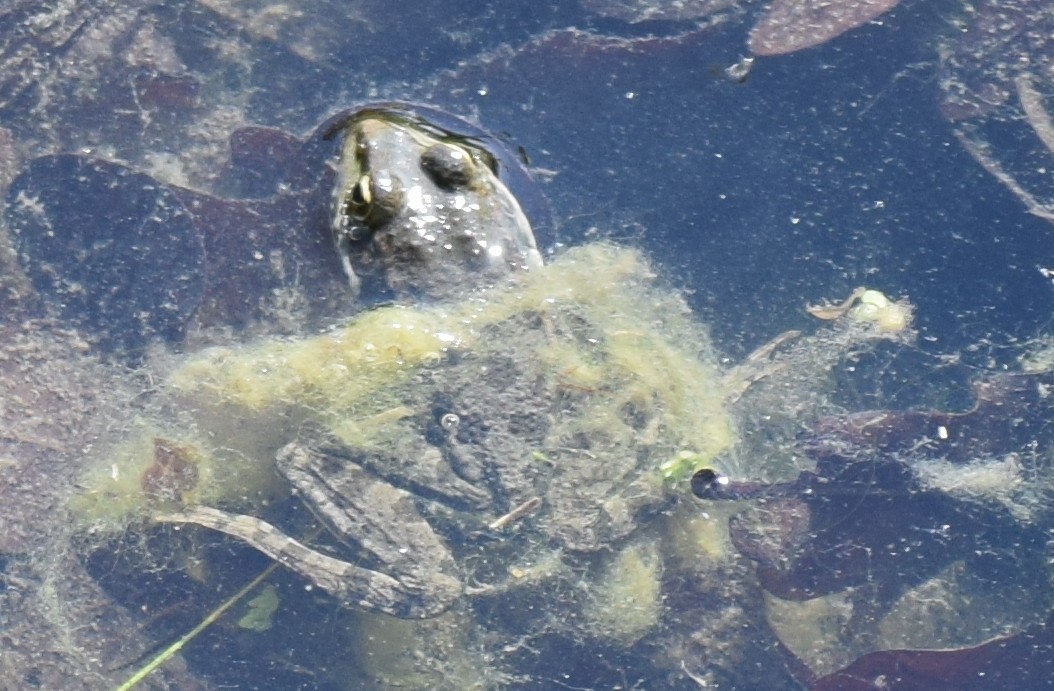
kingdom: Animalia
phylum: Chordata
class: Amphibia
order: Anura
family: Ranidae
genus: Pelophylax
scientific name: Pelophylax
